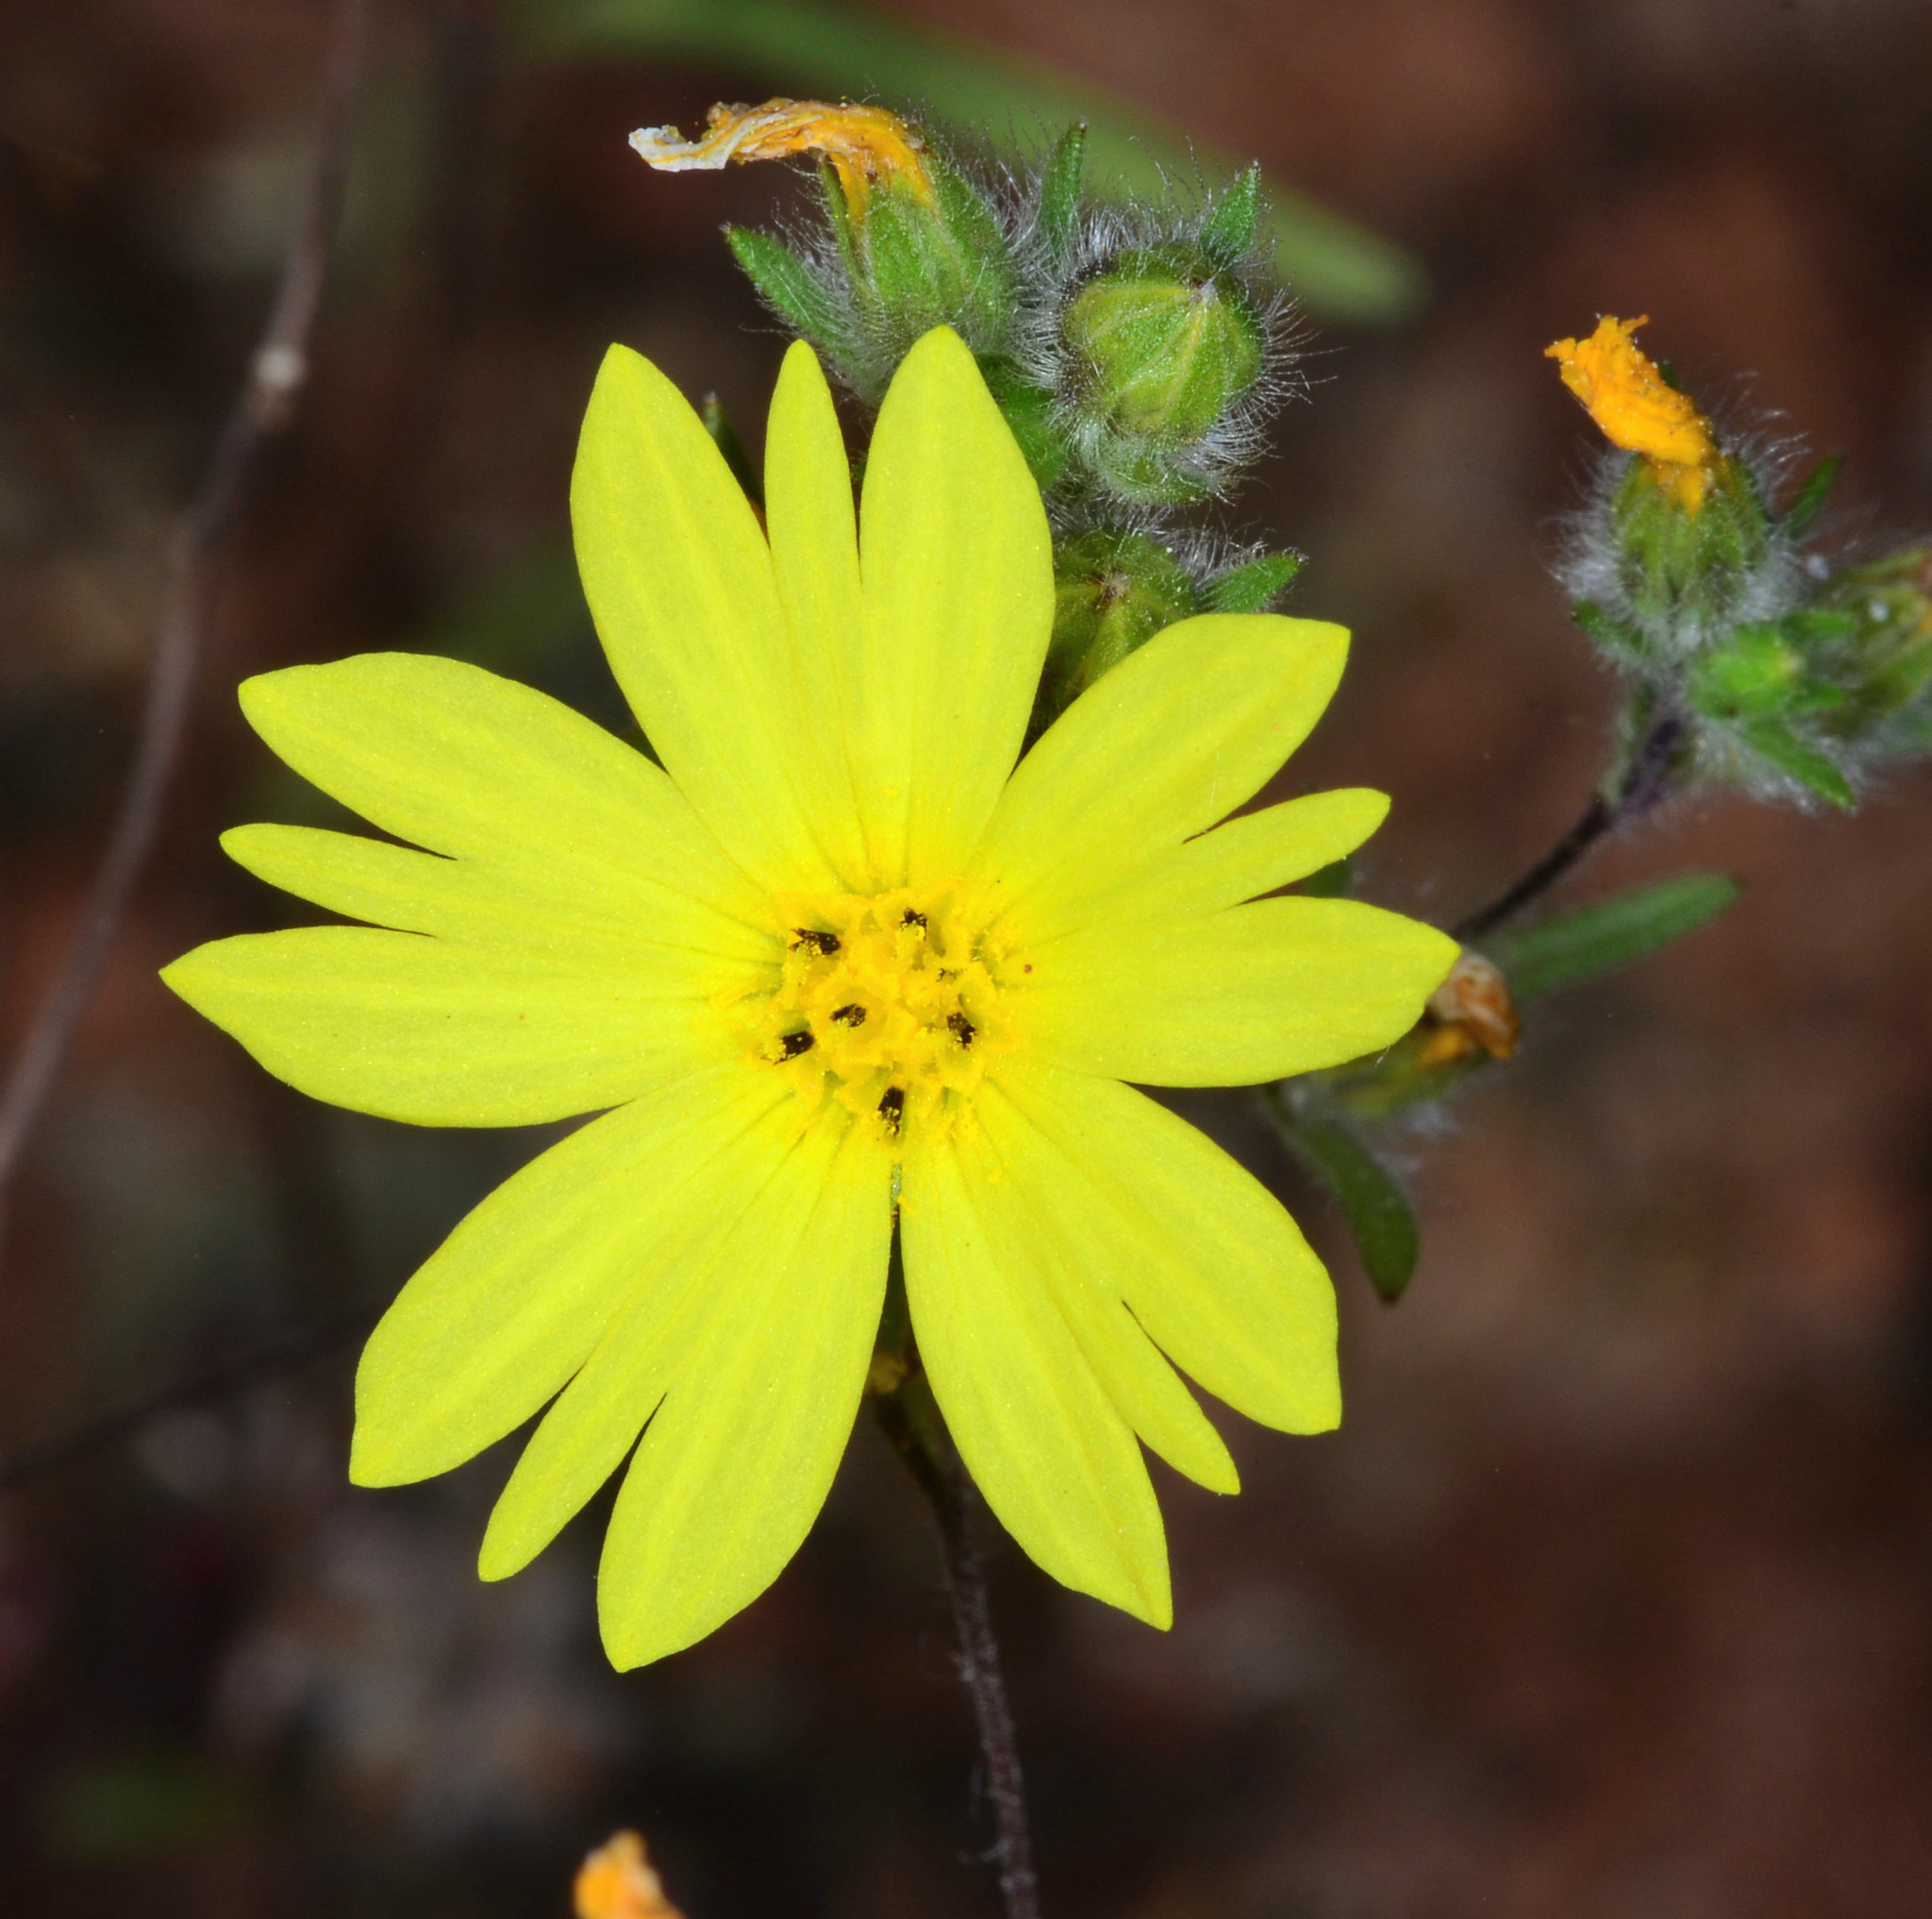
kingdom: Plantae
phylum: Tracheophyta
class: Magnoliopsida
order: Asterales
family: Asteraceae
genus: Lagophylla
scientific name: Lagophylla minor
